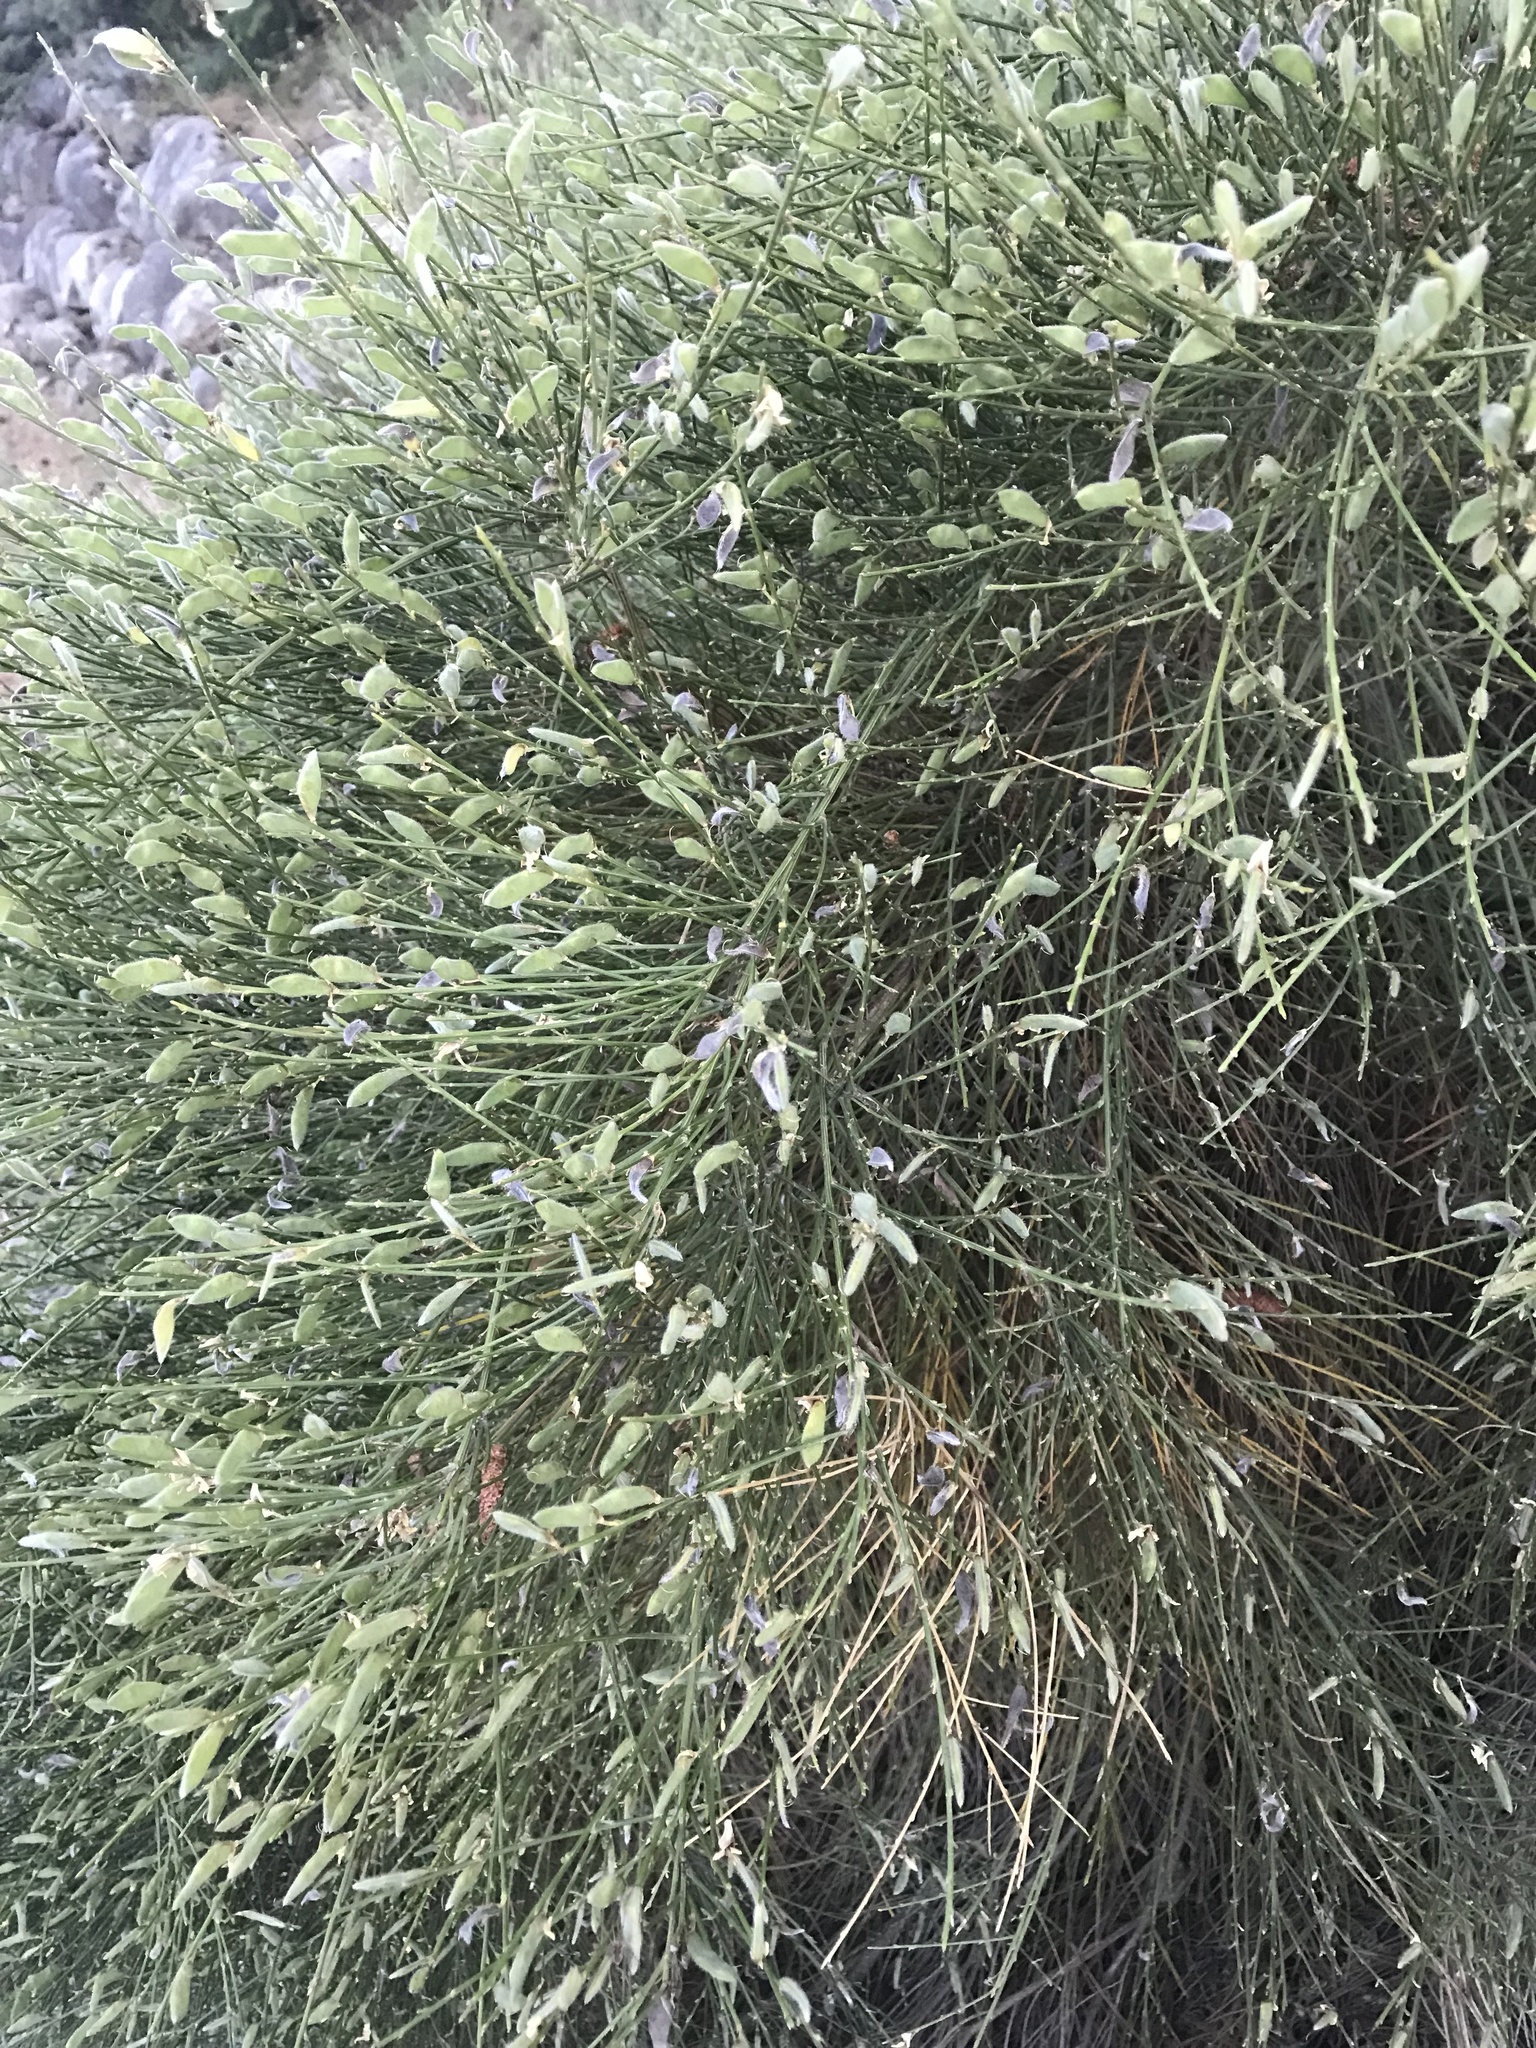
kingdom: Plantae
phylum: Tracheophyta
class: Magnoliopsida
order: Fabales
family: Fabaceae
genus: Cytisus
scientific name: Cytisus scoparius
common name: Scotch broom
